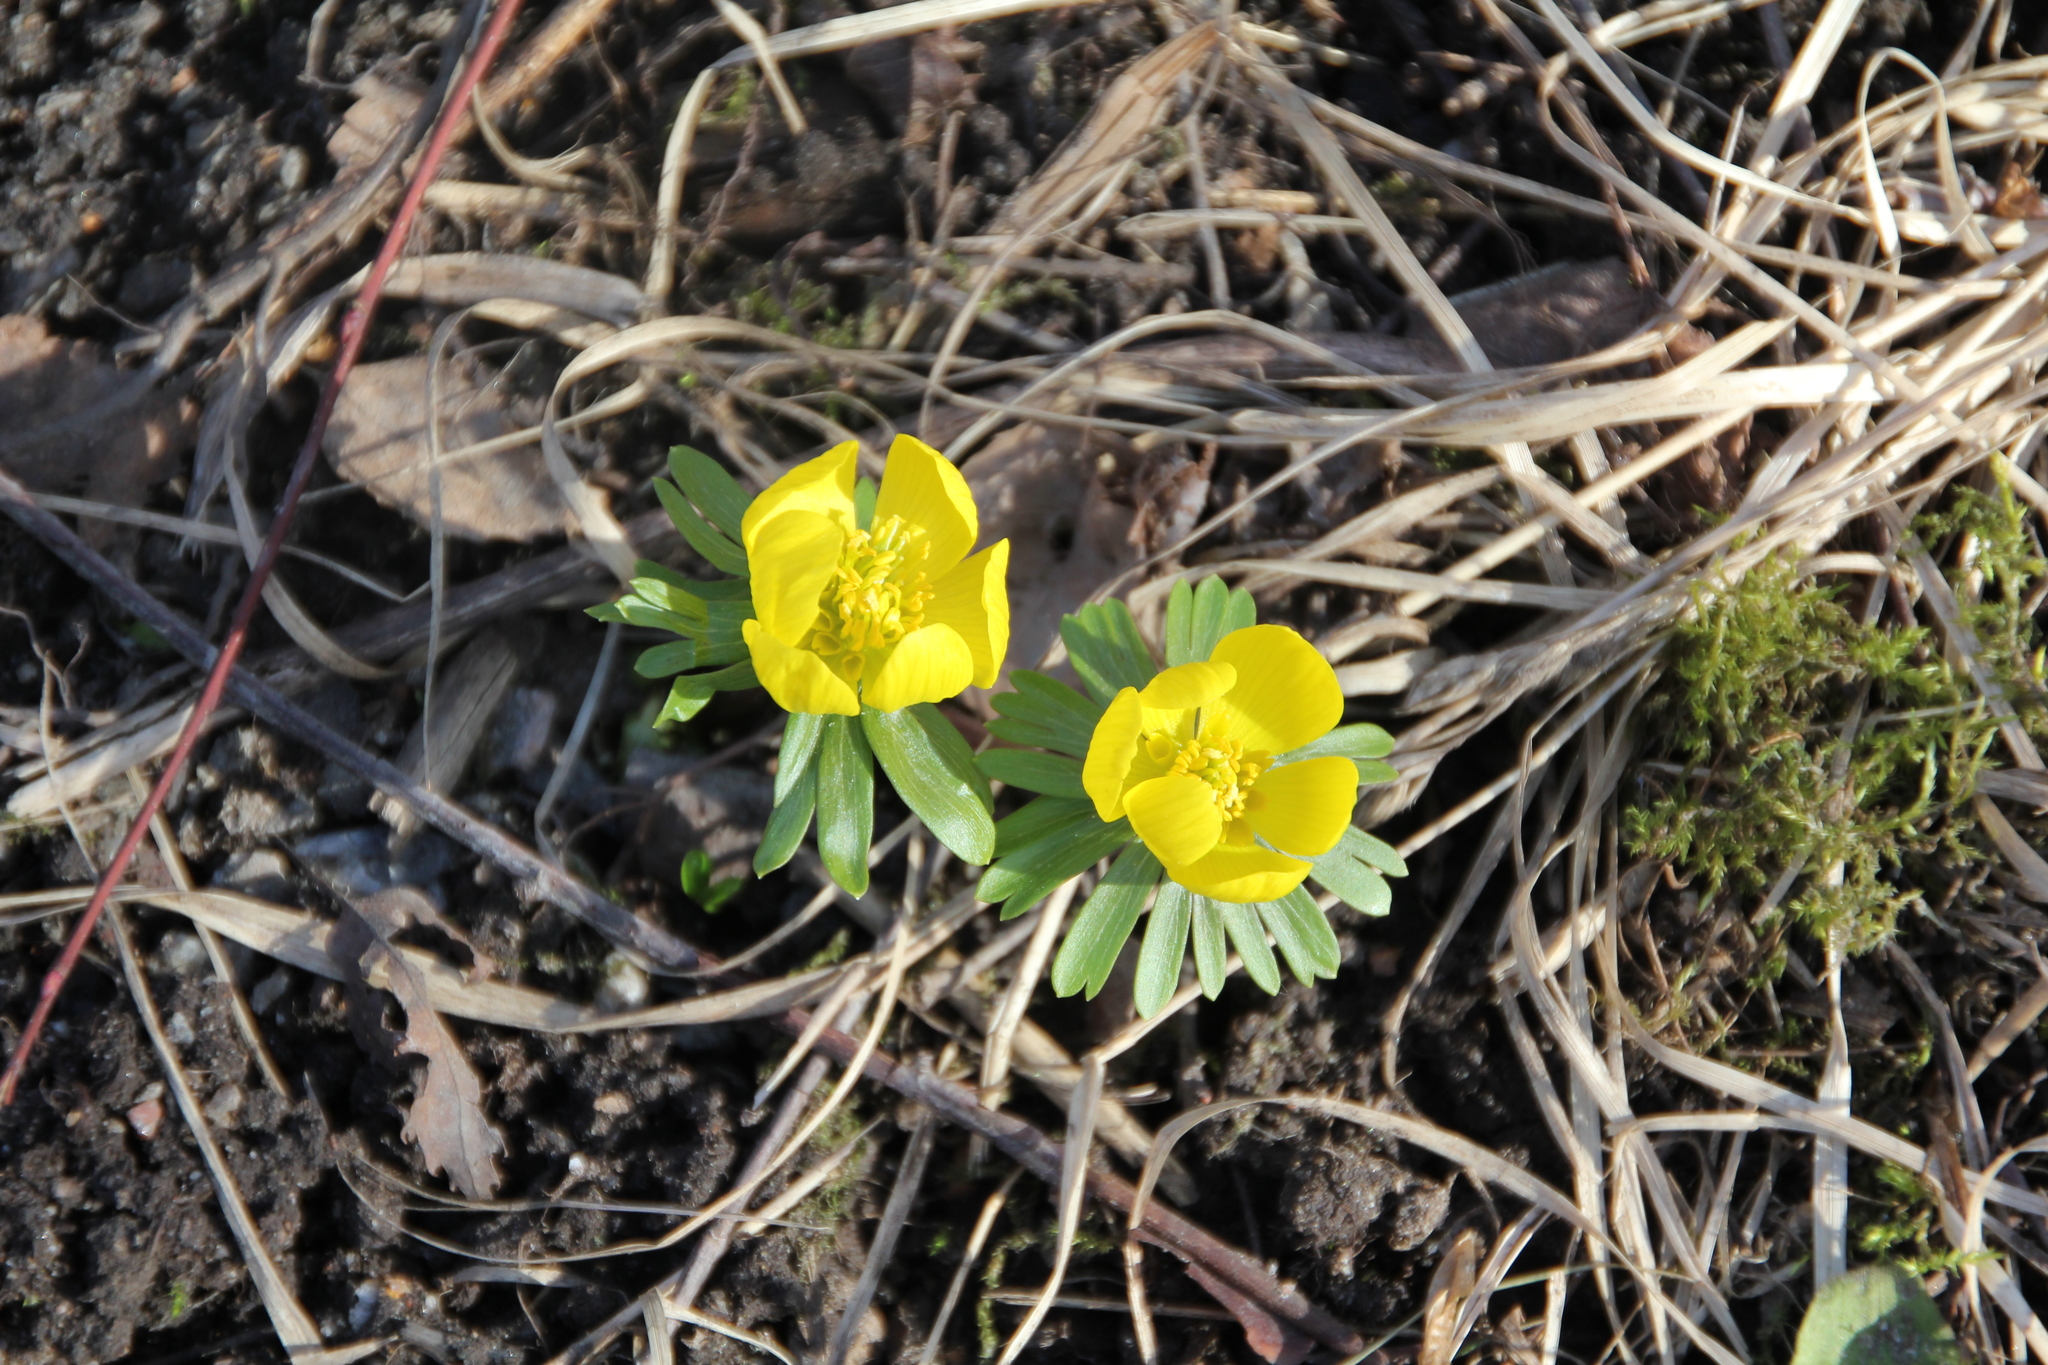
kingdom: Plantae
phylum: Tracheophyta
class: Magnoliopsida
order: Ranunculales
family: Ranunculaceae
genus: Eranthis
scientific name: Eranthis hyemalis
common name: Winter aconite
